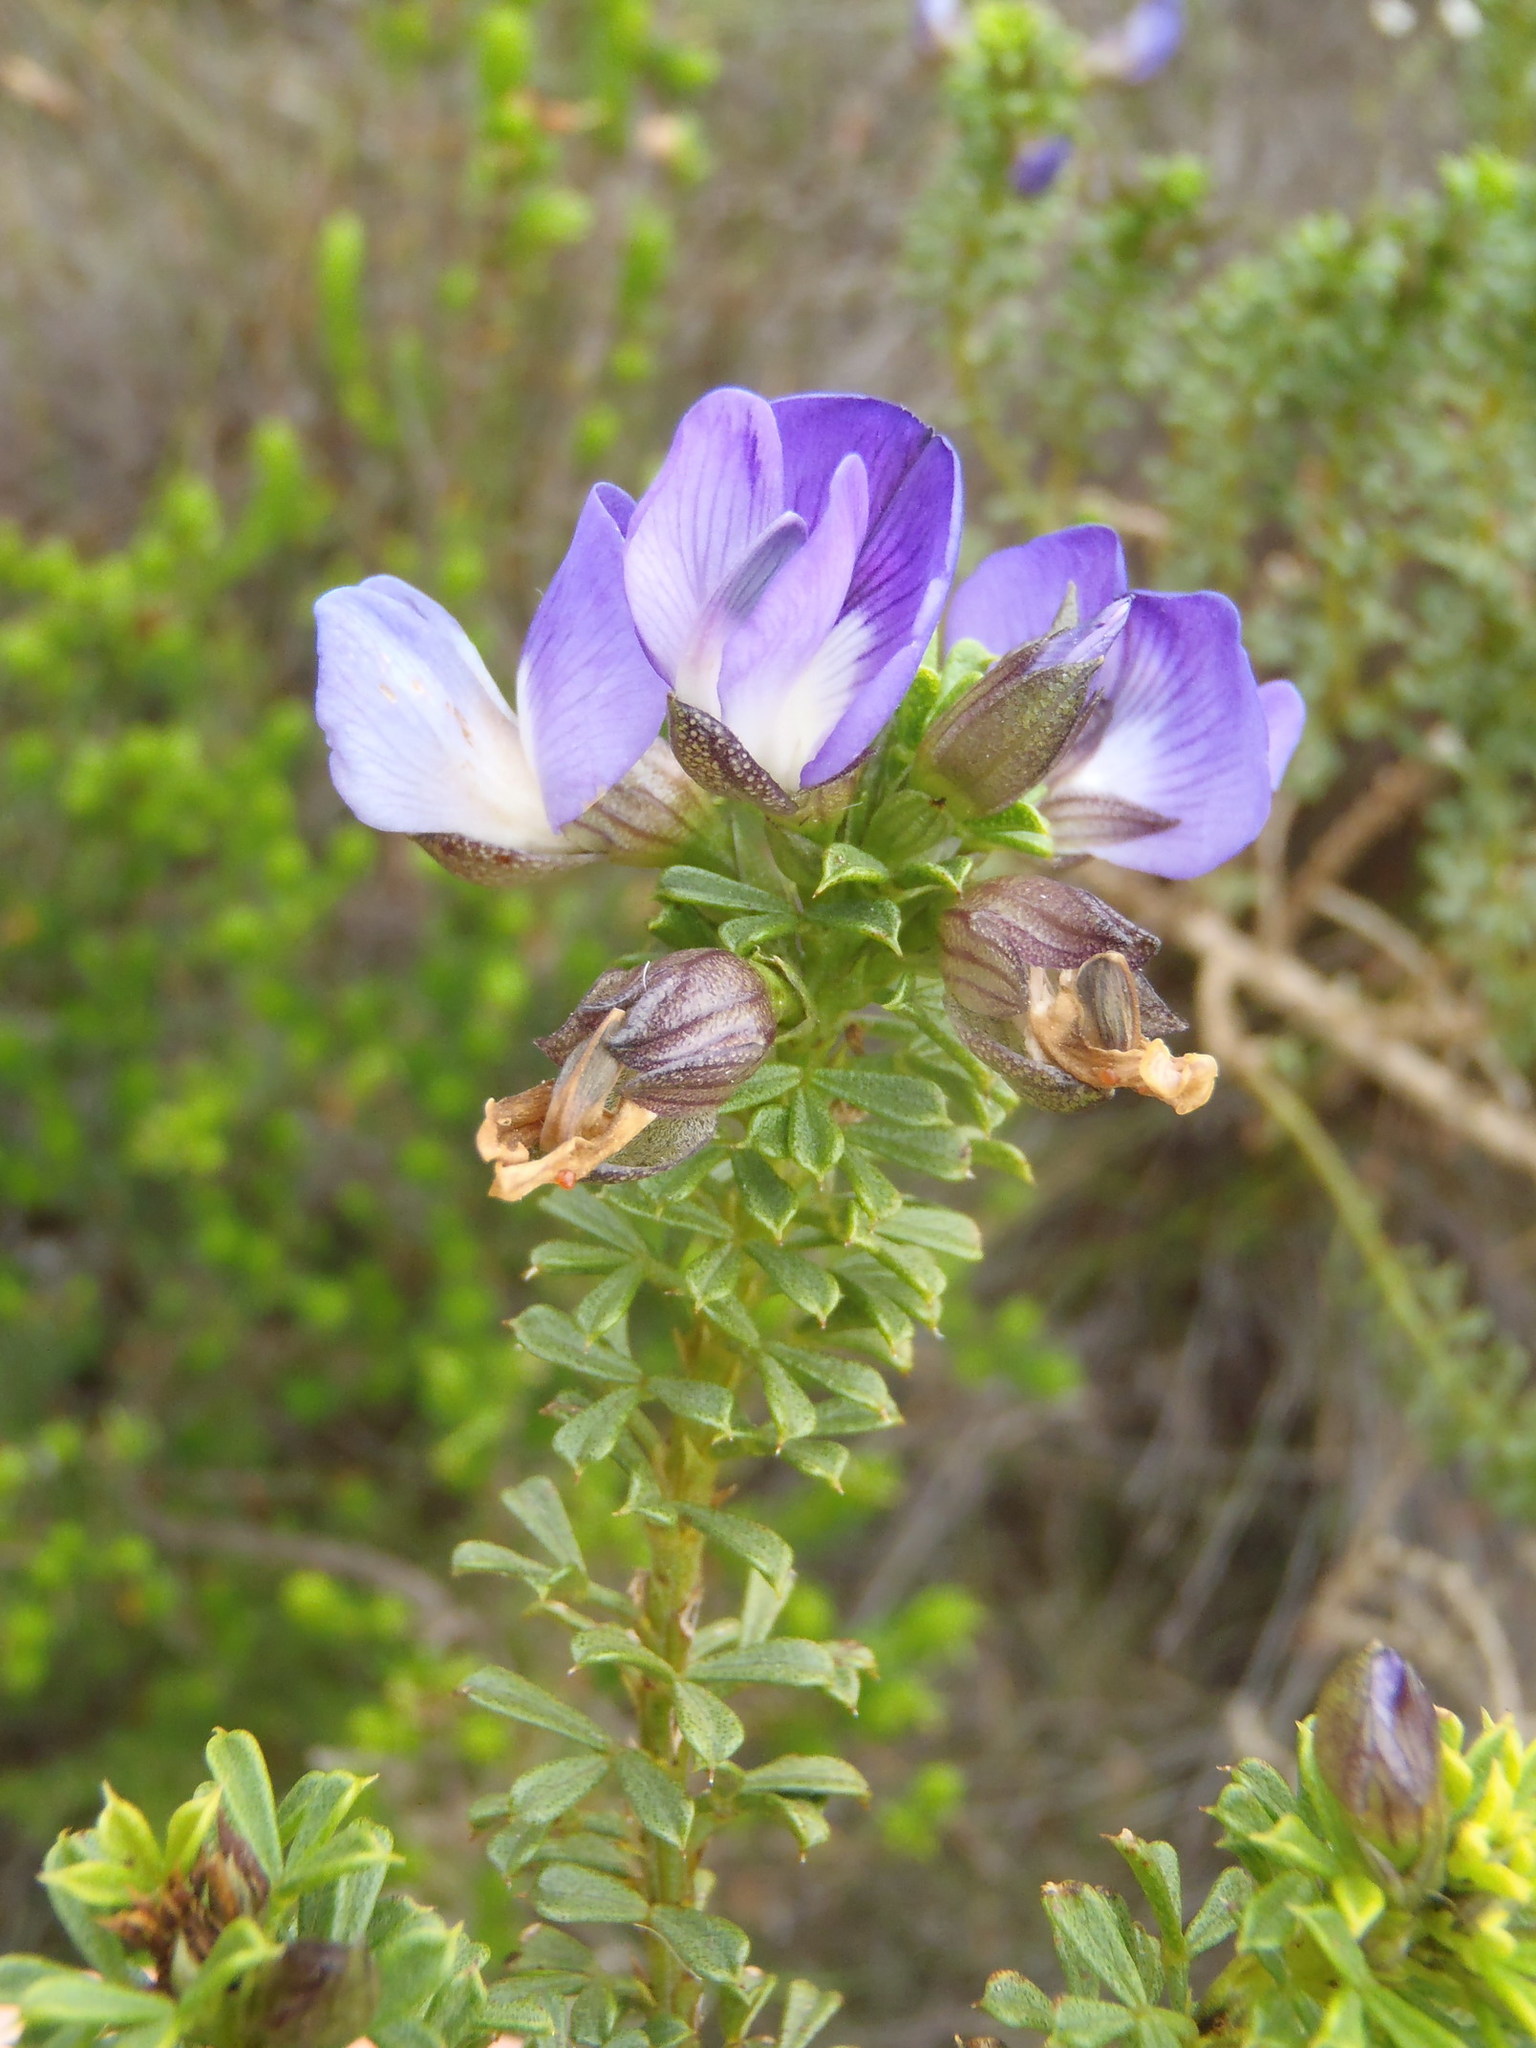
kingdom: Plantae
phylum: Tracheophyta
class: Magnoliopsida
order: Fabales
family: Fabaceae
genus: Psoralea
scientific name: Psoralea aculeata
